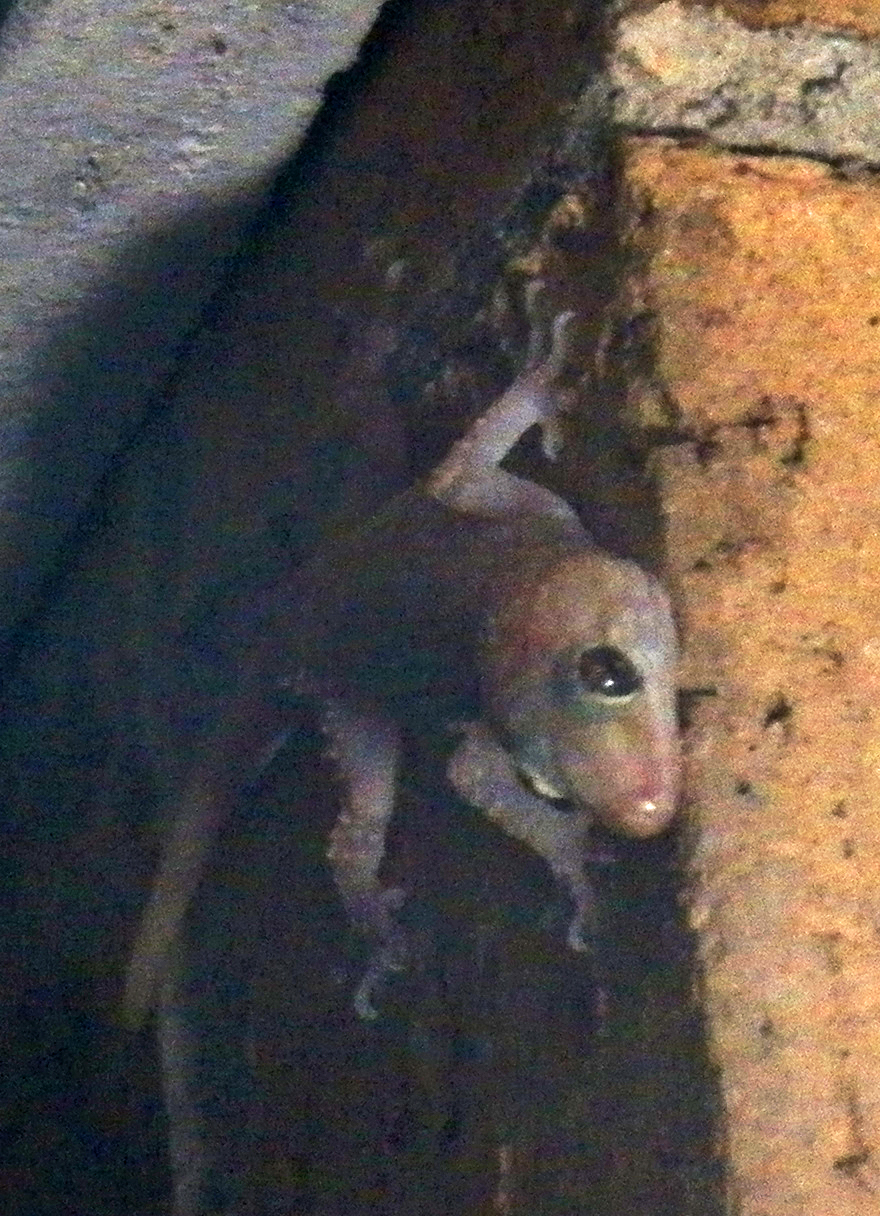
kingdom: Animalia
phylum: Chordata
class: Squamata
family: Gekkonidae
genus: Hemidactylus
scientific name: Hemidactylus turcicus
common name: Turkish gecko
